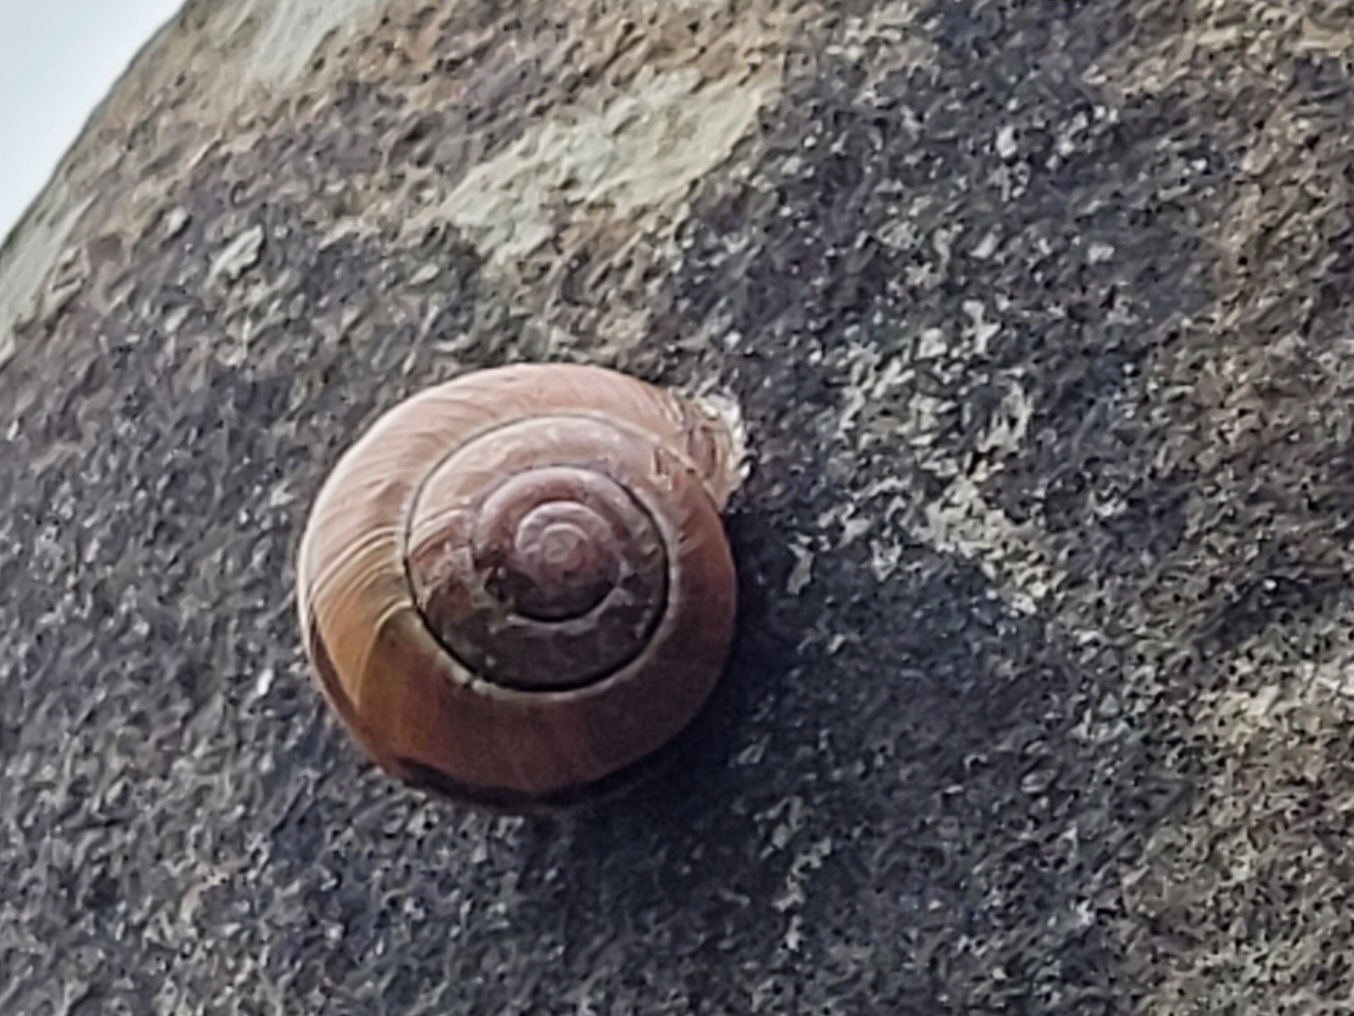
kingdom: Animalia
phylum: Mollusca
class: Gastropoda
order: Stylommatophora
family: Helicidae
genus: Cepaea
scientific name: Cepaea nemoralis
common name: Grovesnail
